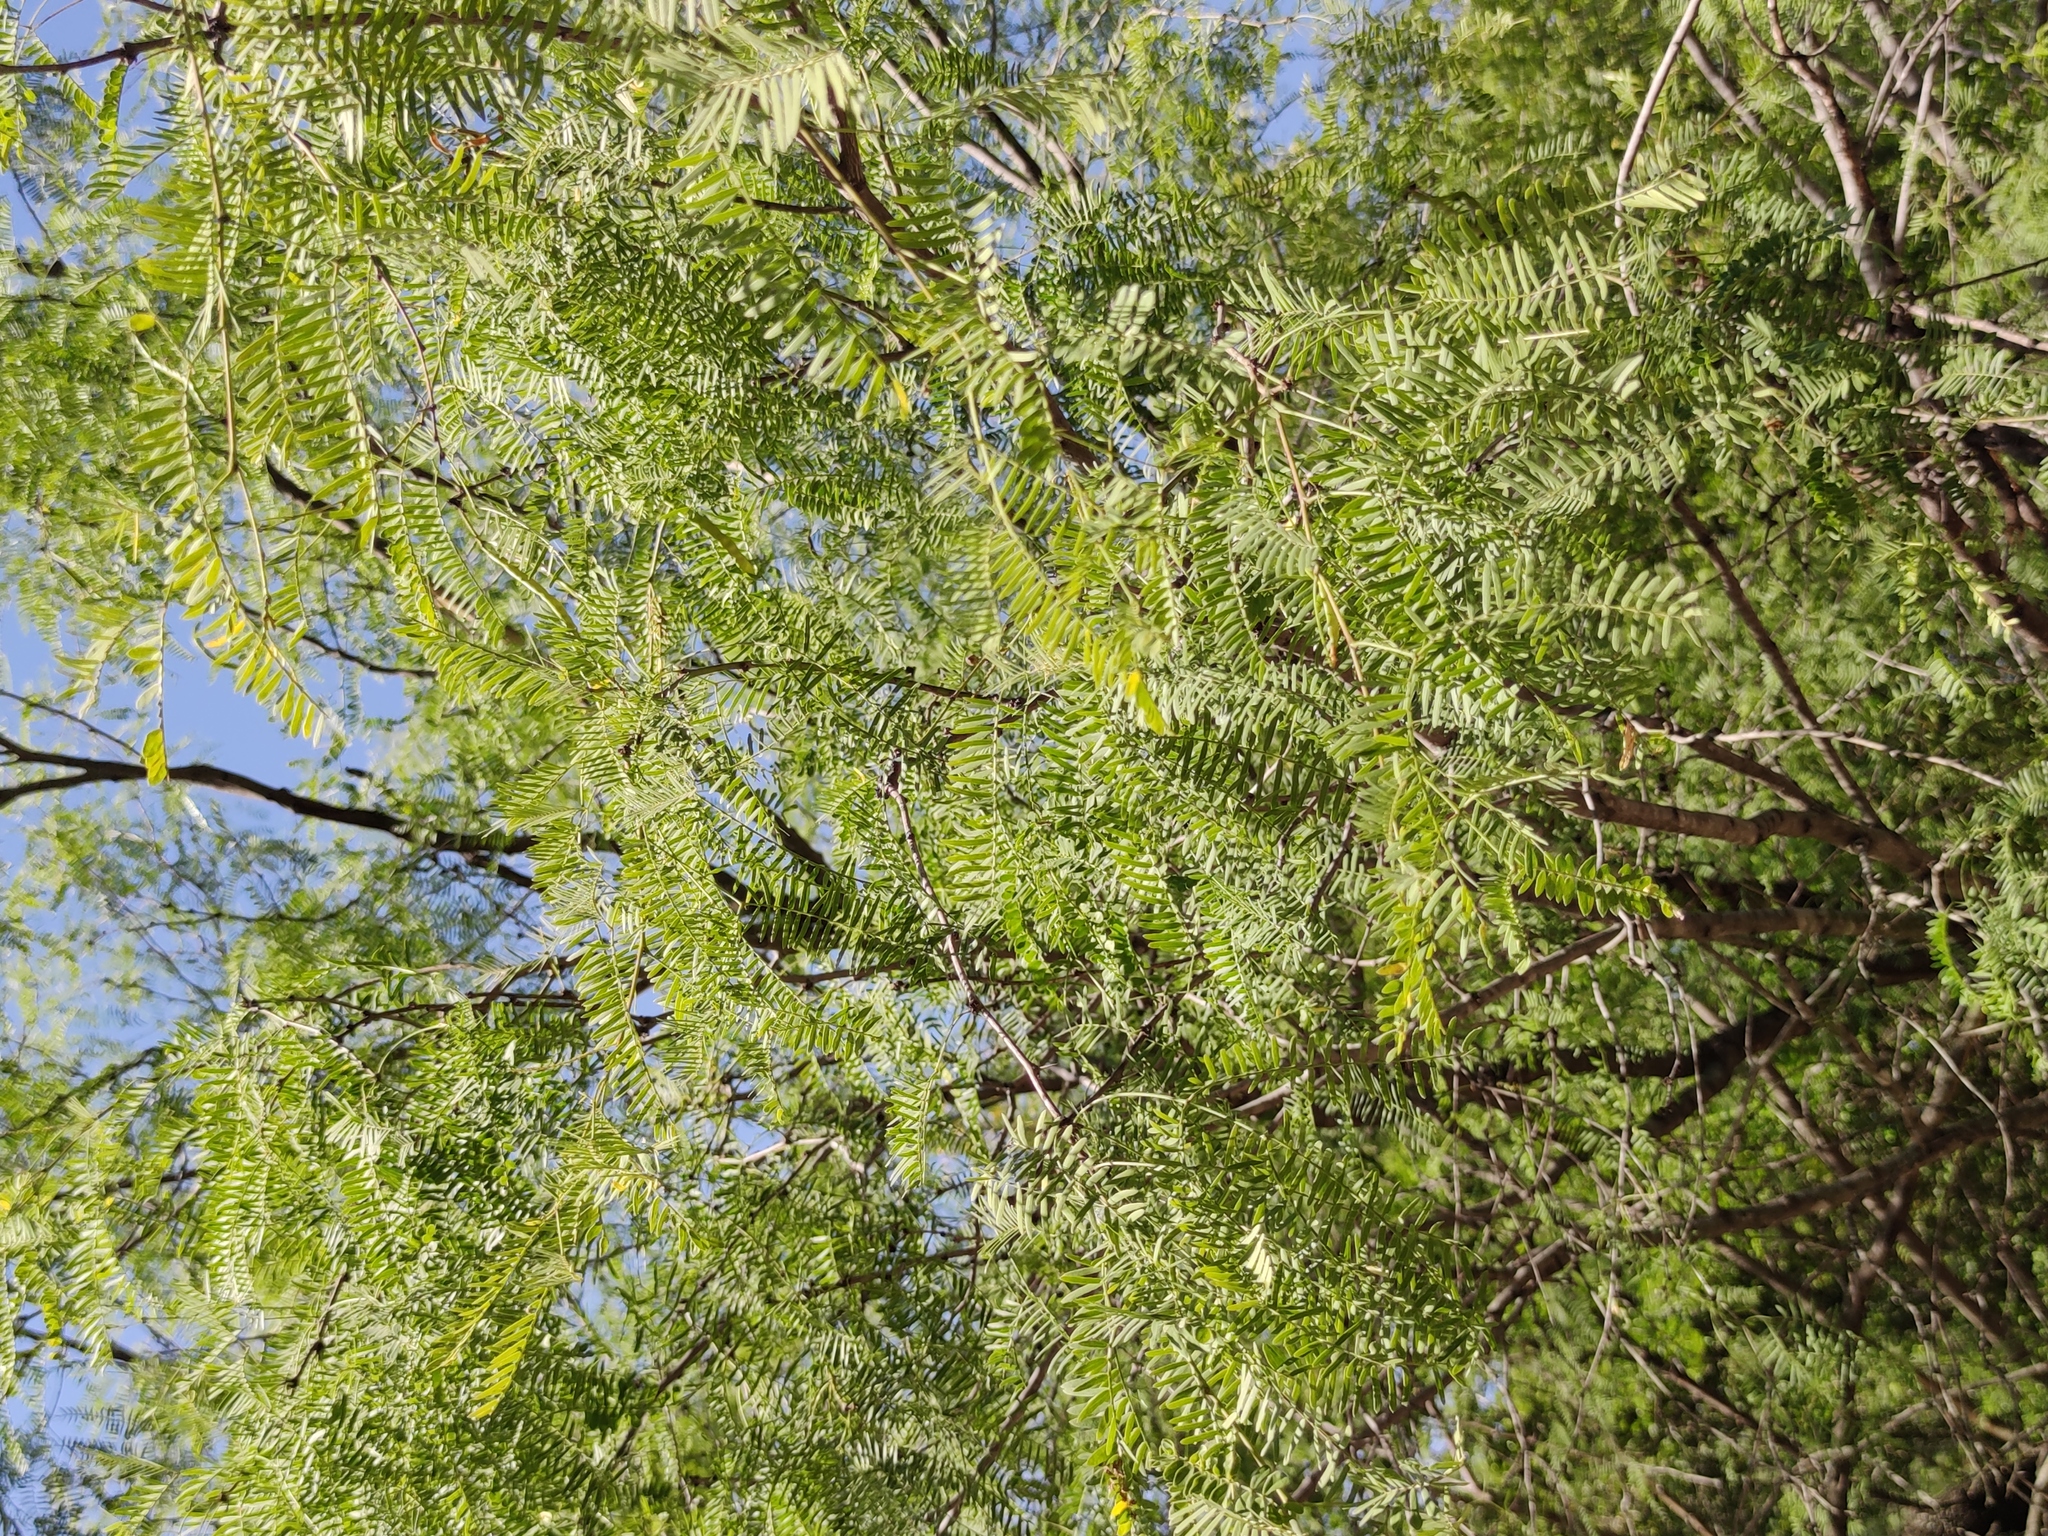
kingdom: Plantae
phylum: Tracheophyta
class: Magnoliopsida
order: Fabales
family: Fabaceae
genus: Prosopis
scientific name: Prosopis glandulosa
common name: Honey mesquite
